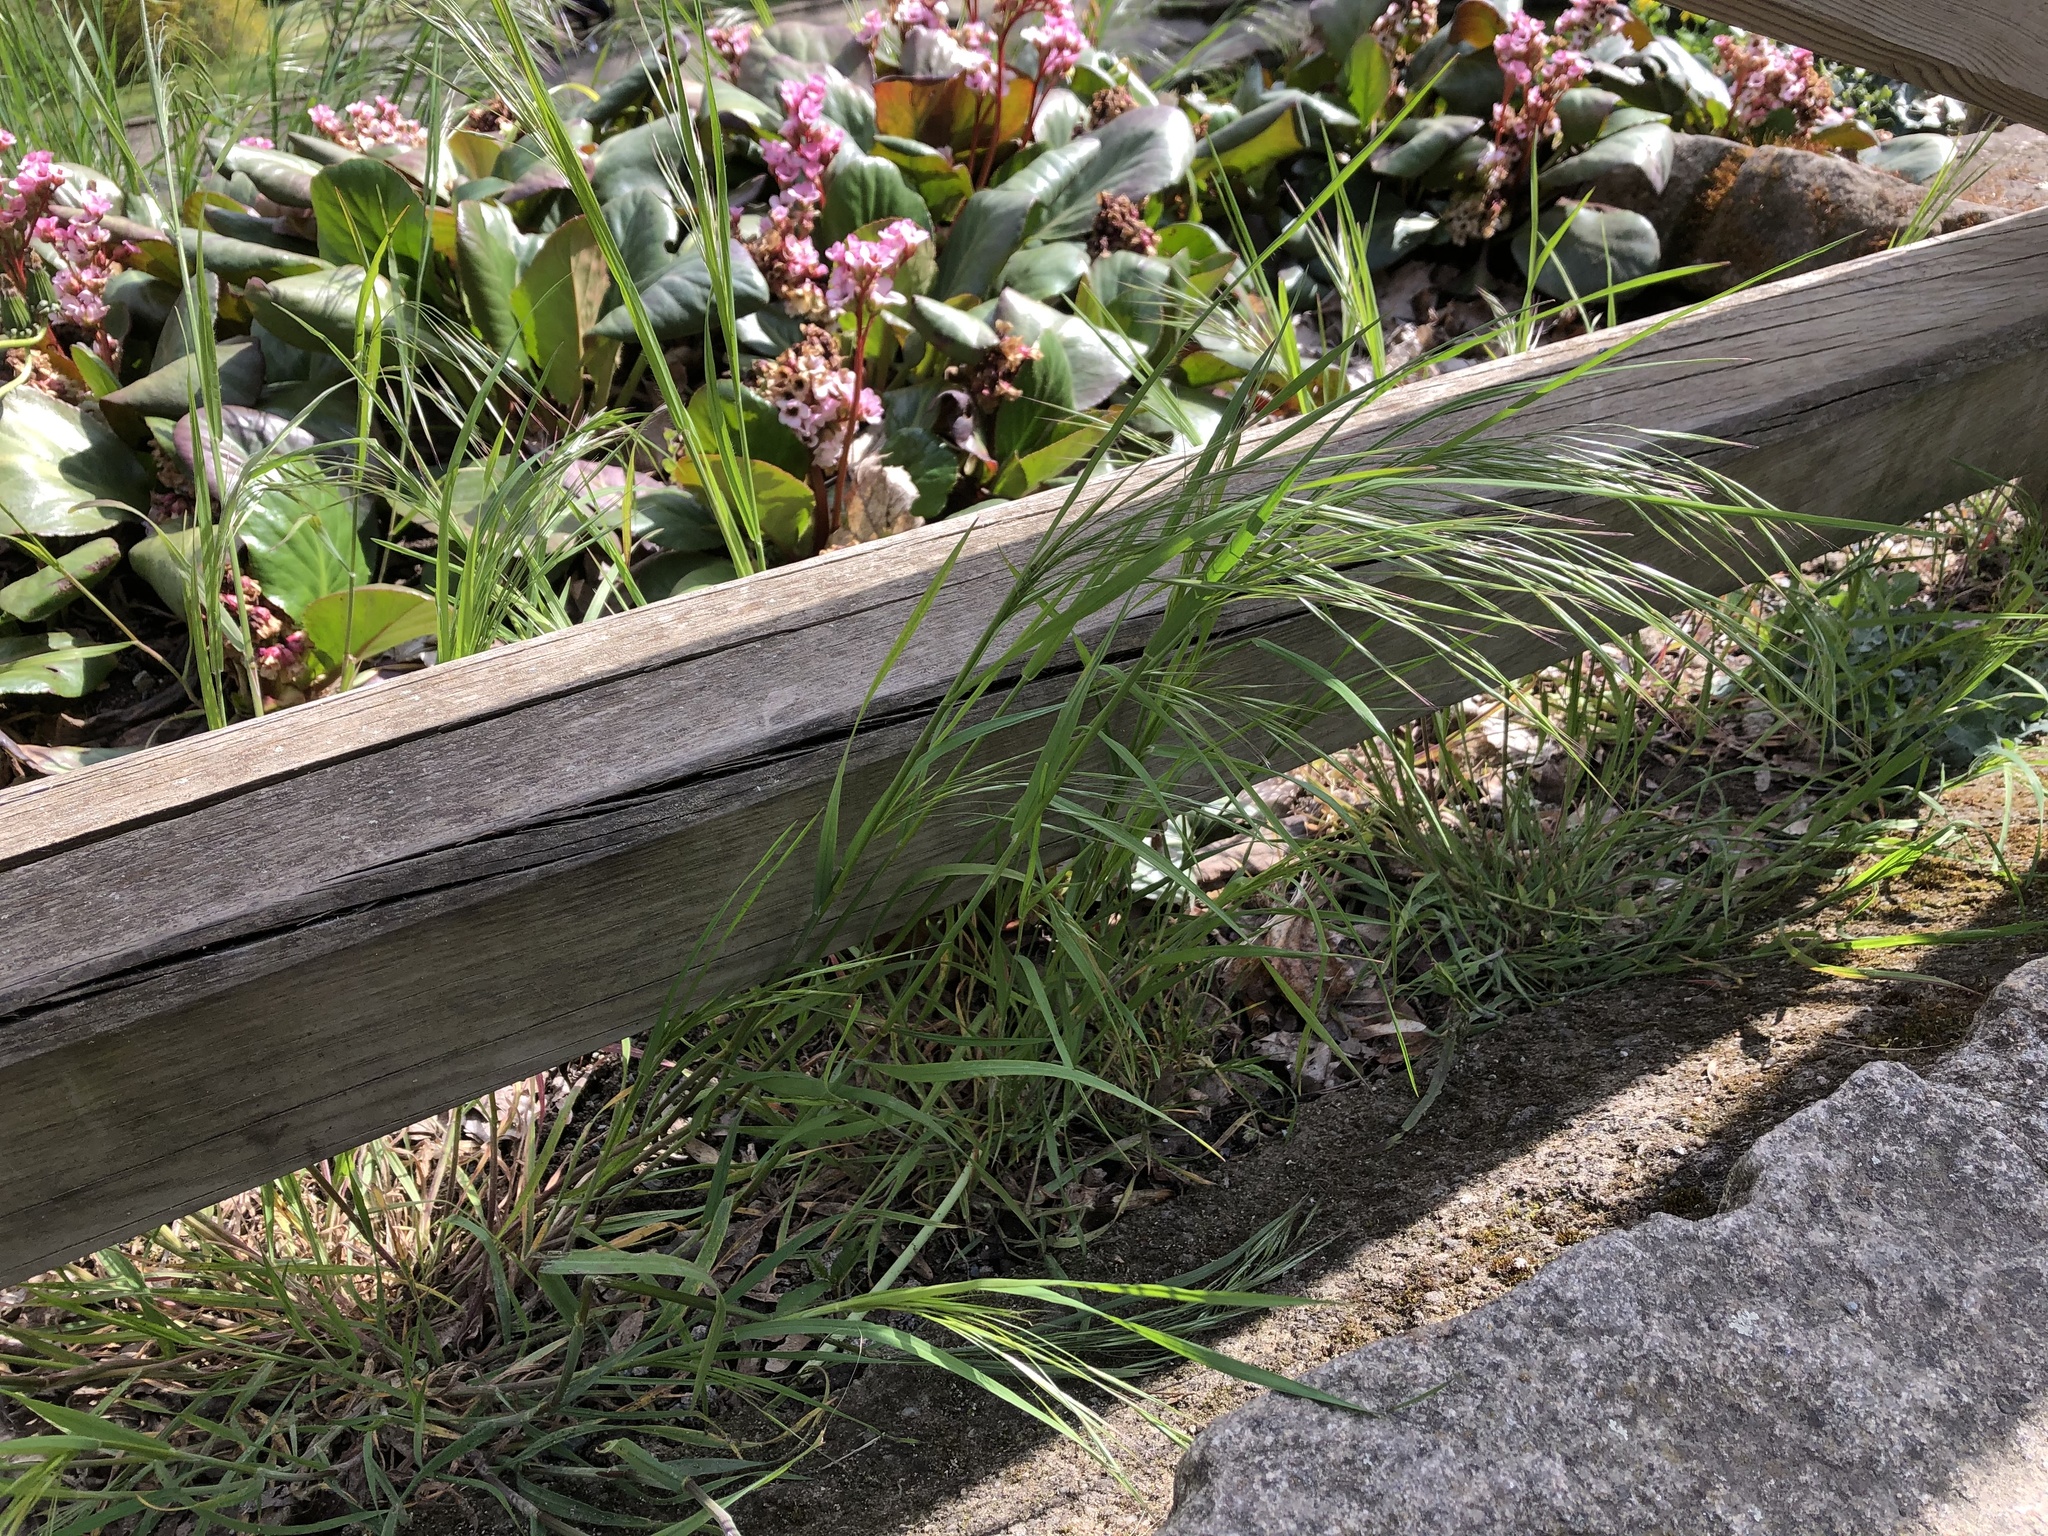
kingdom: Plantae
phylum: Tracheophyta
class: Liliopsida
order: Poales
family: Poaceae
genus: Bromus
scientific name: Bromus sterilis
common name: Poverty brome
